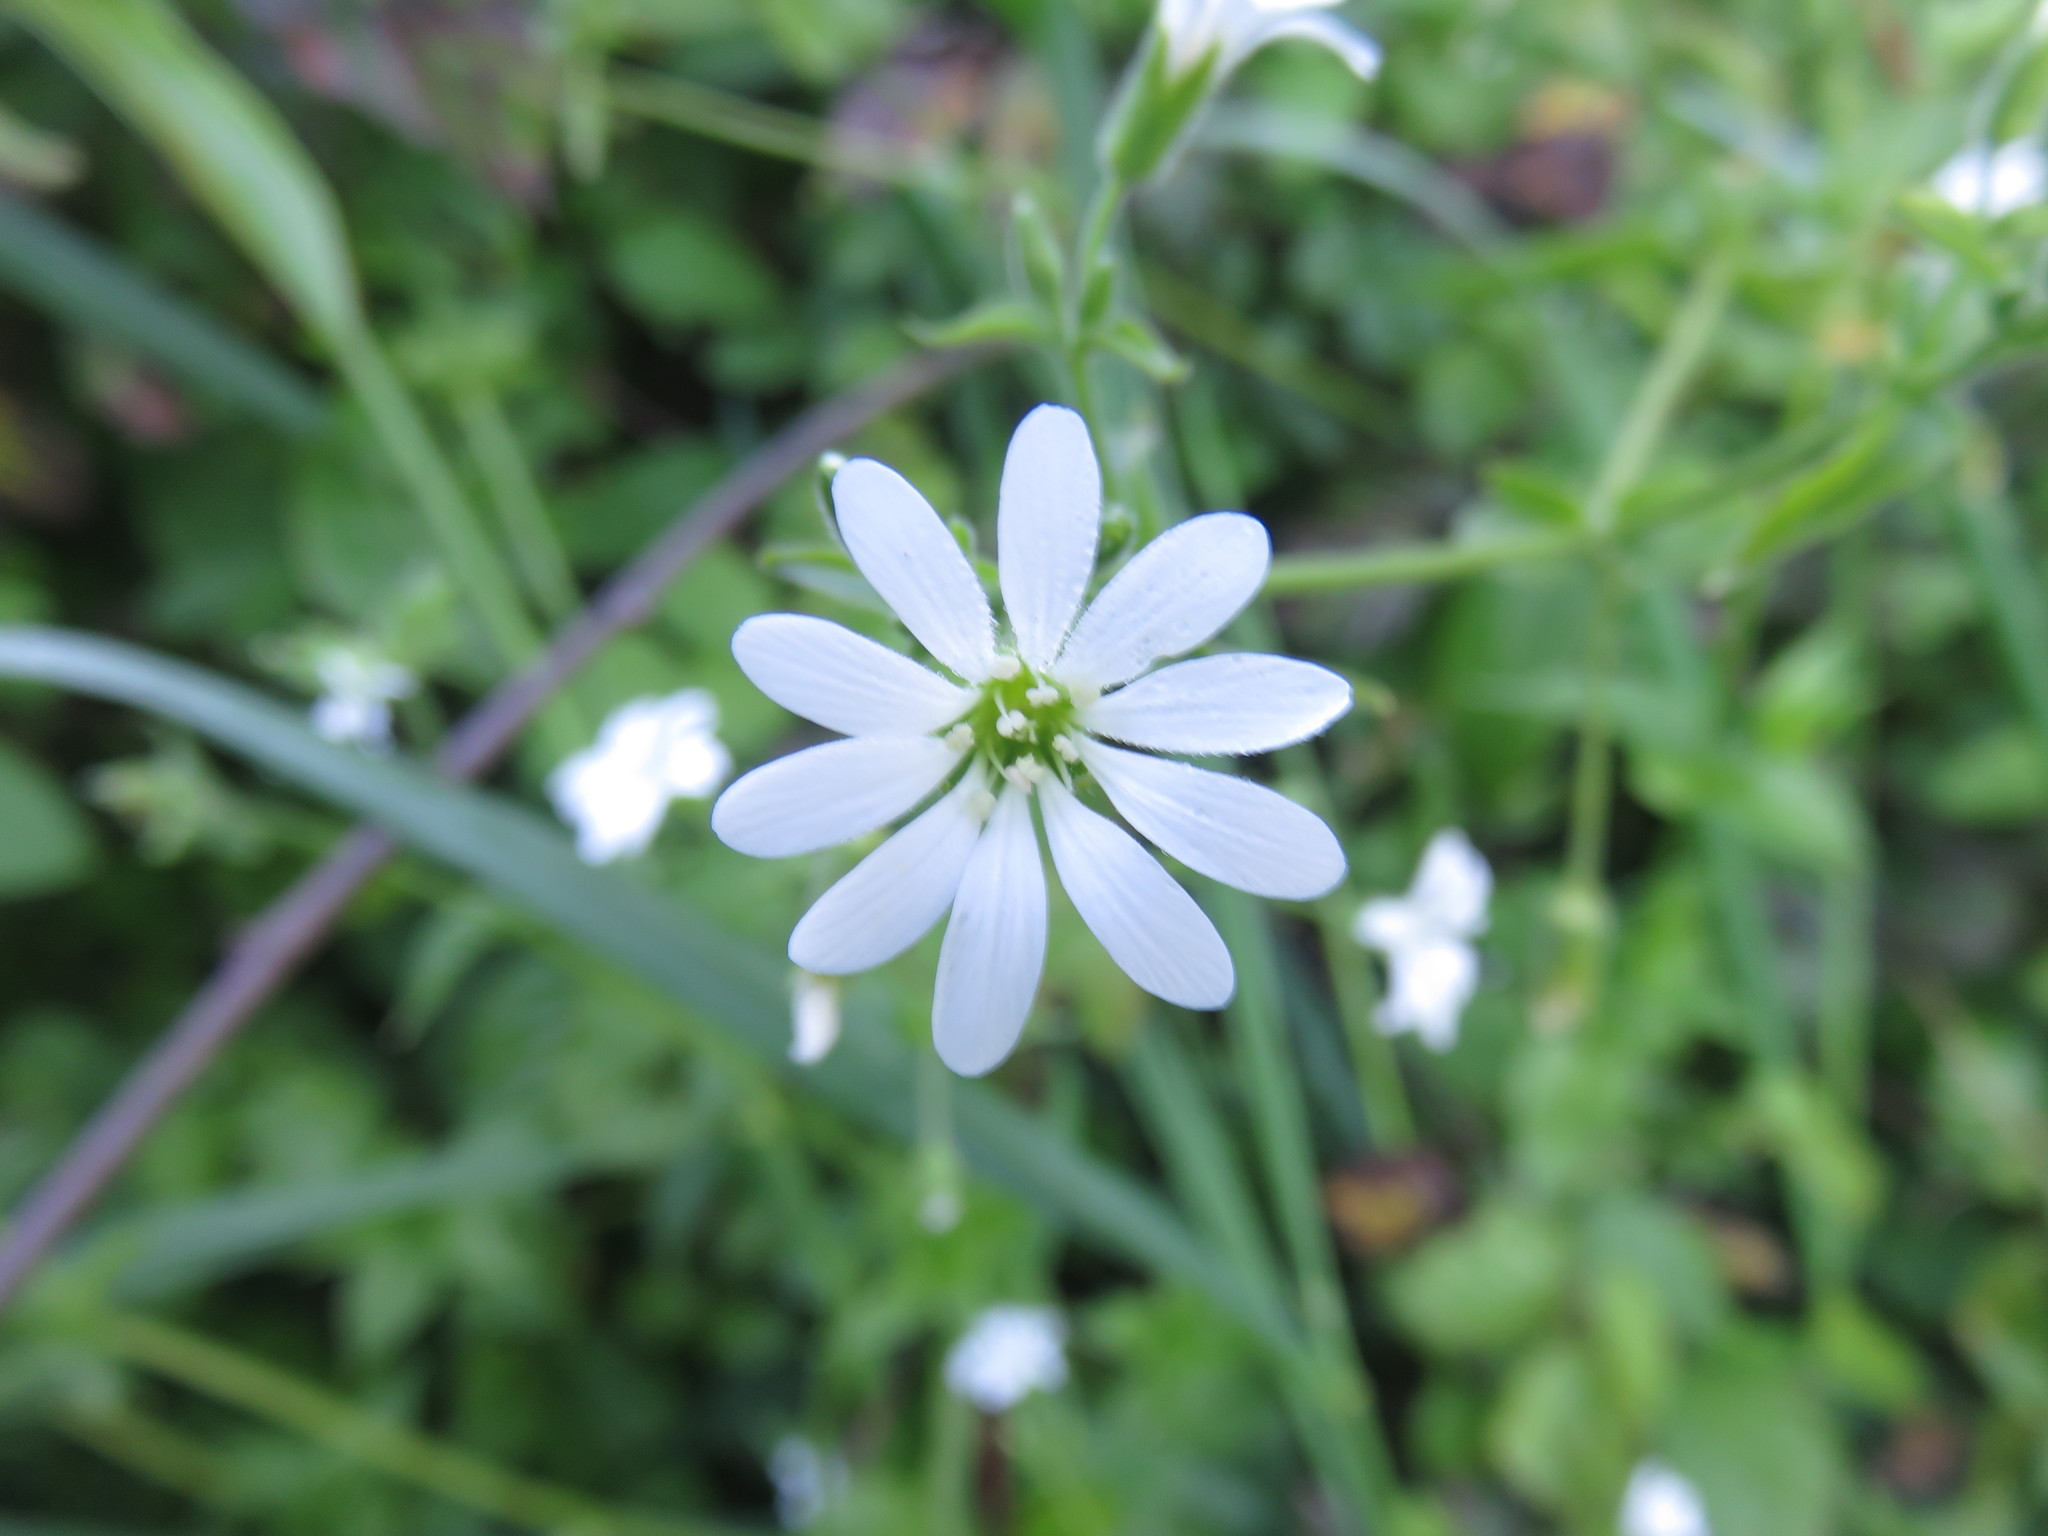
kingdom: Plantae
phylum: Tracheophyta
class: Magnoliopsida
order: Caryophyllales
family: Caryophyllaceae
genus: Stellaria
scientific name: Stellaria chilensis
